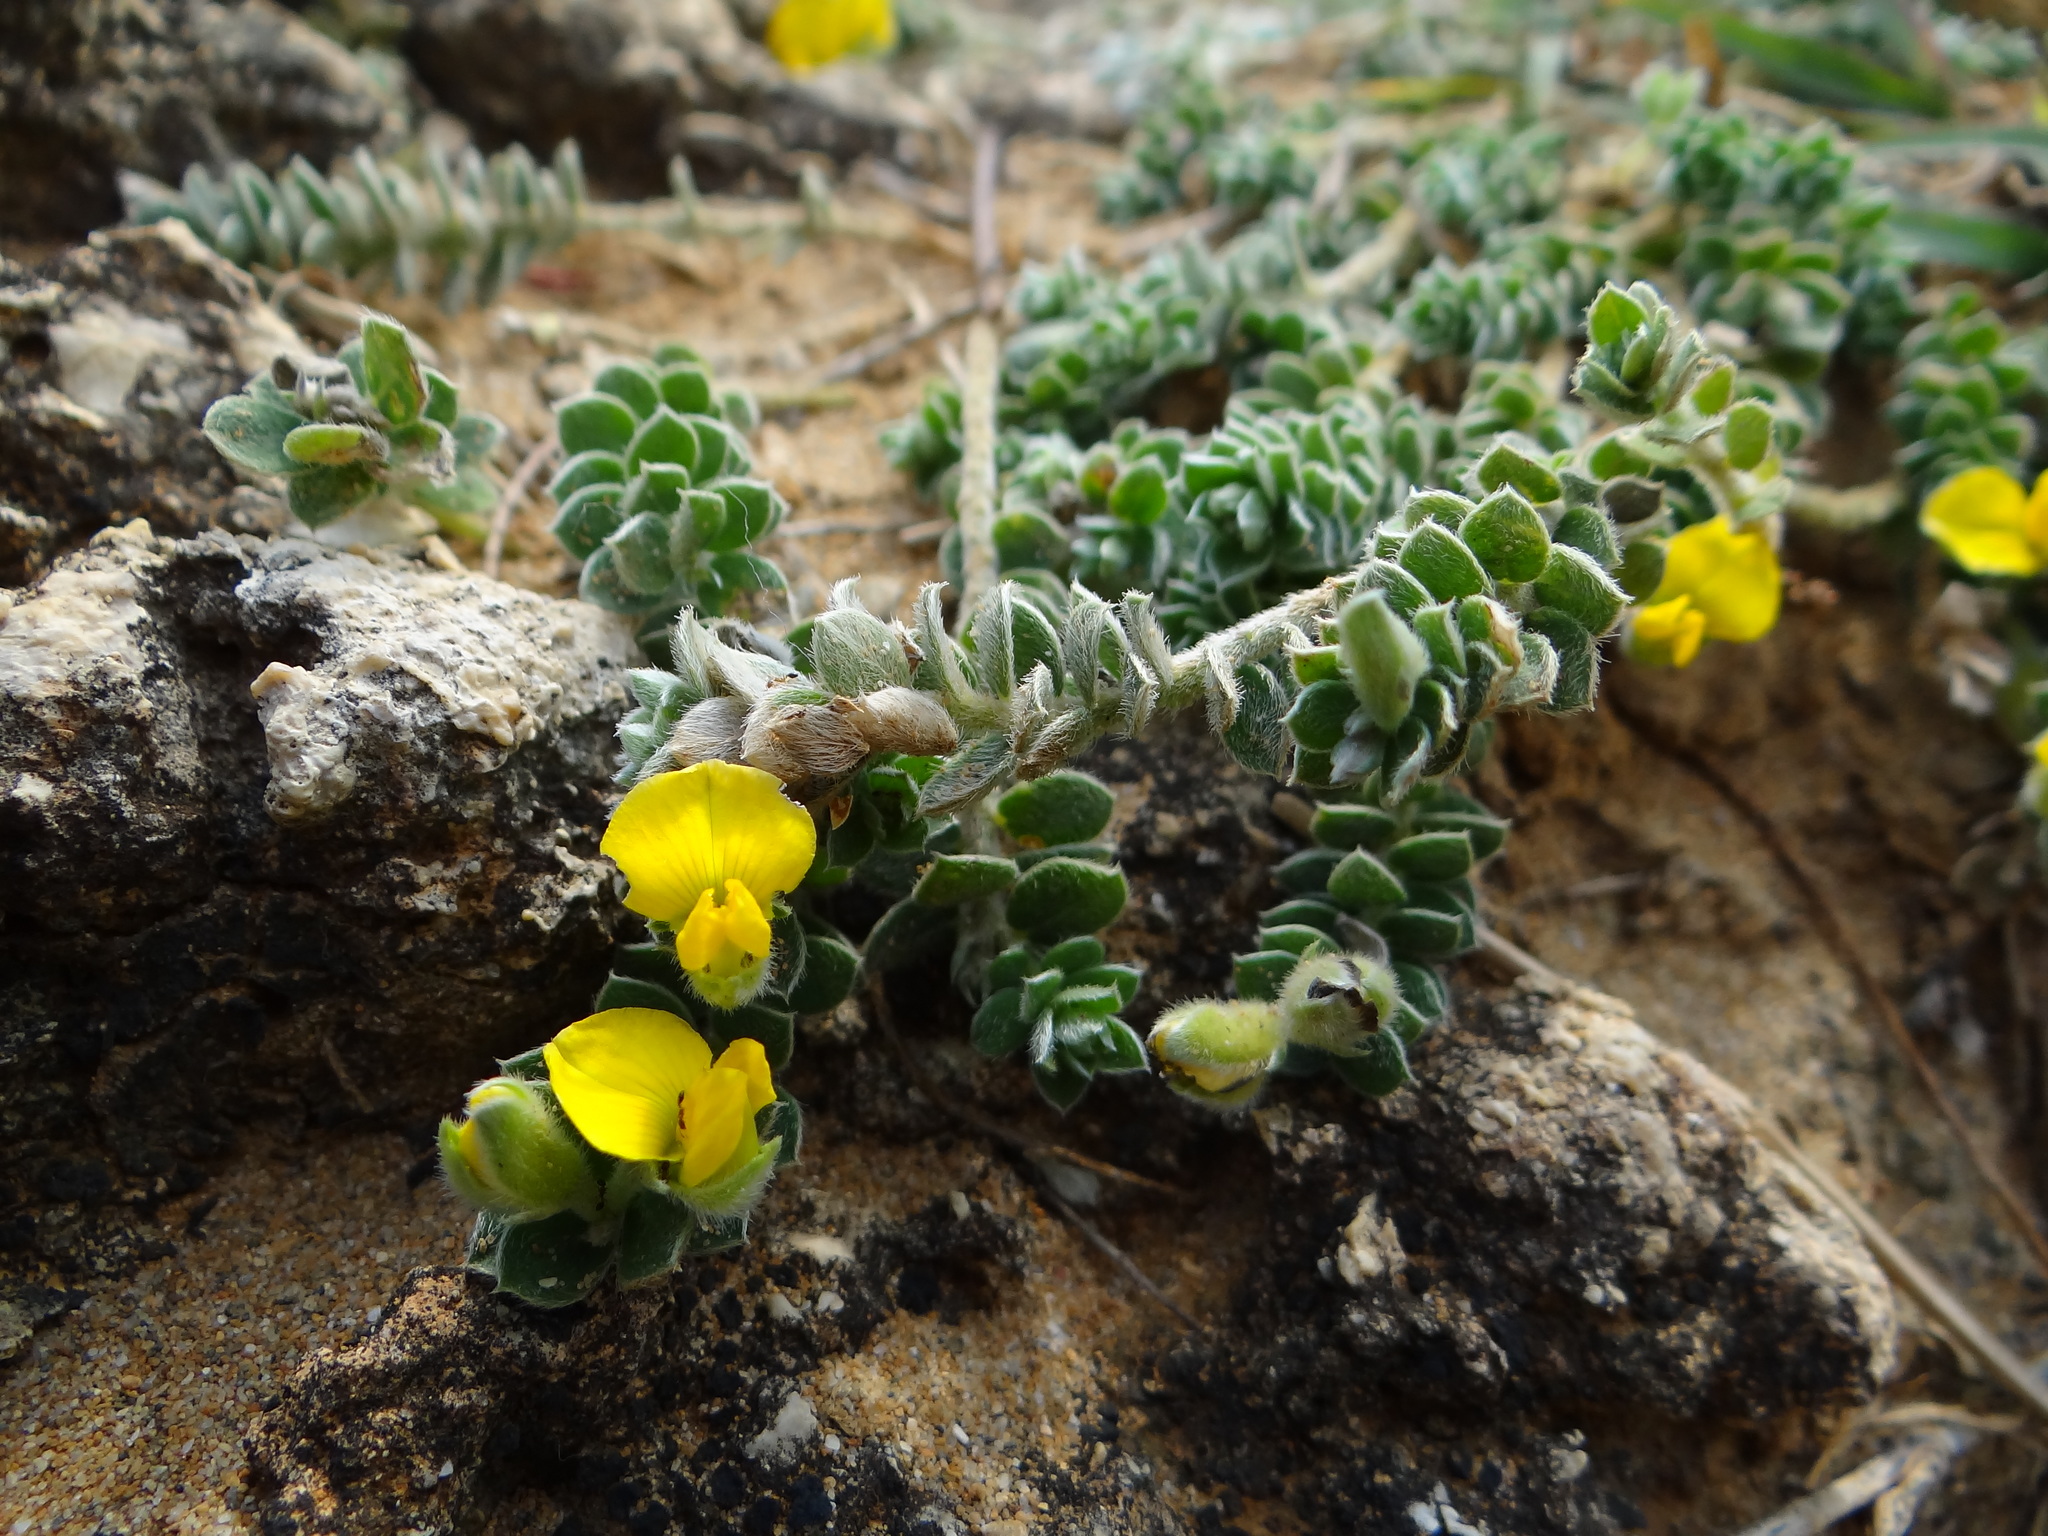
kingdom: Plantae
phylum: Tracheophyta
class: Magnoliopsida
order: Fabales
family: Fabaceae
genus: Crotalaria
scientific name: Crotalaria similis
